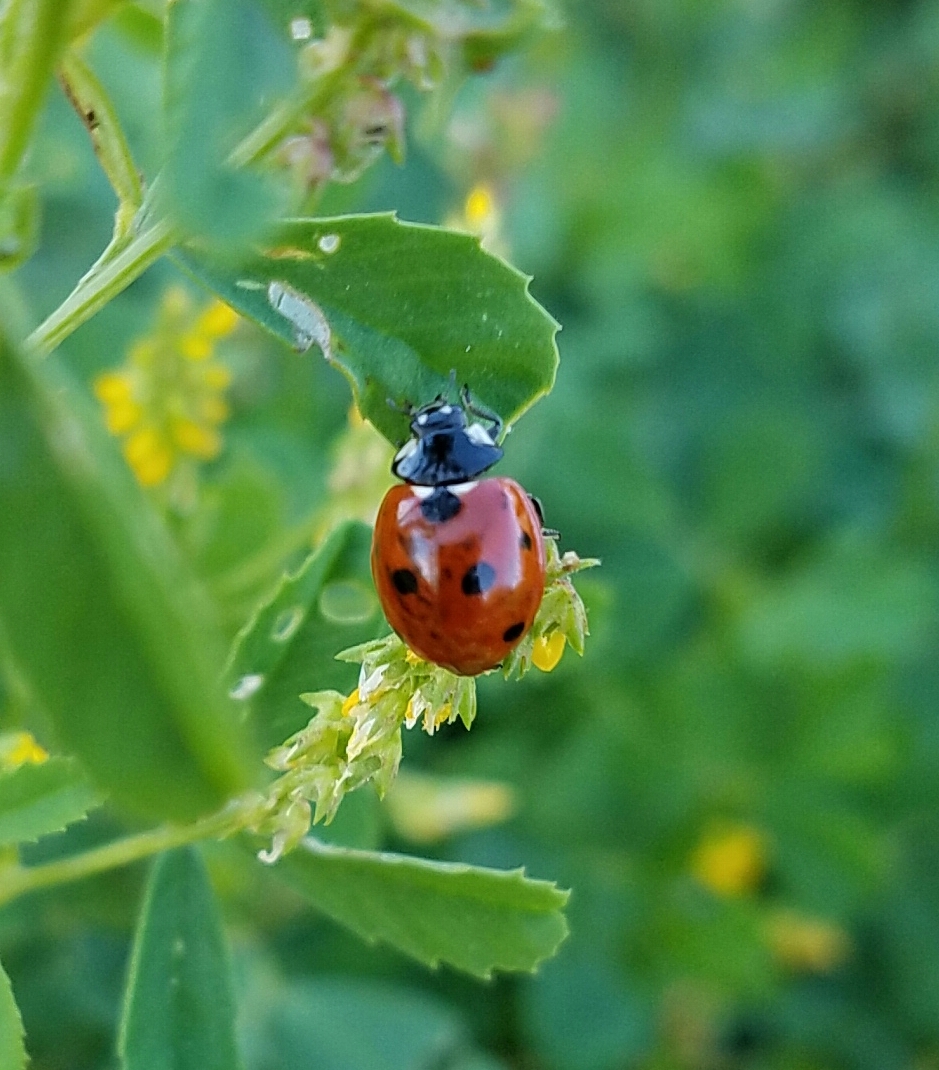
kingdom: Animalia
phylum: Arthropoda
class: Insecta
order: Coleoptera
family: Coccinellidae
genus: Coccinella
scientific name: Coccinella septempunctata
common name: Sevenspotted lady beetle
